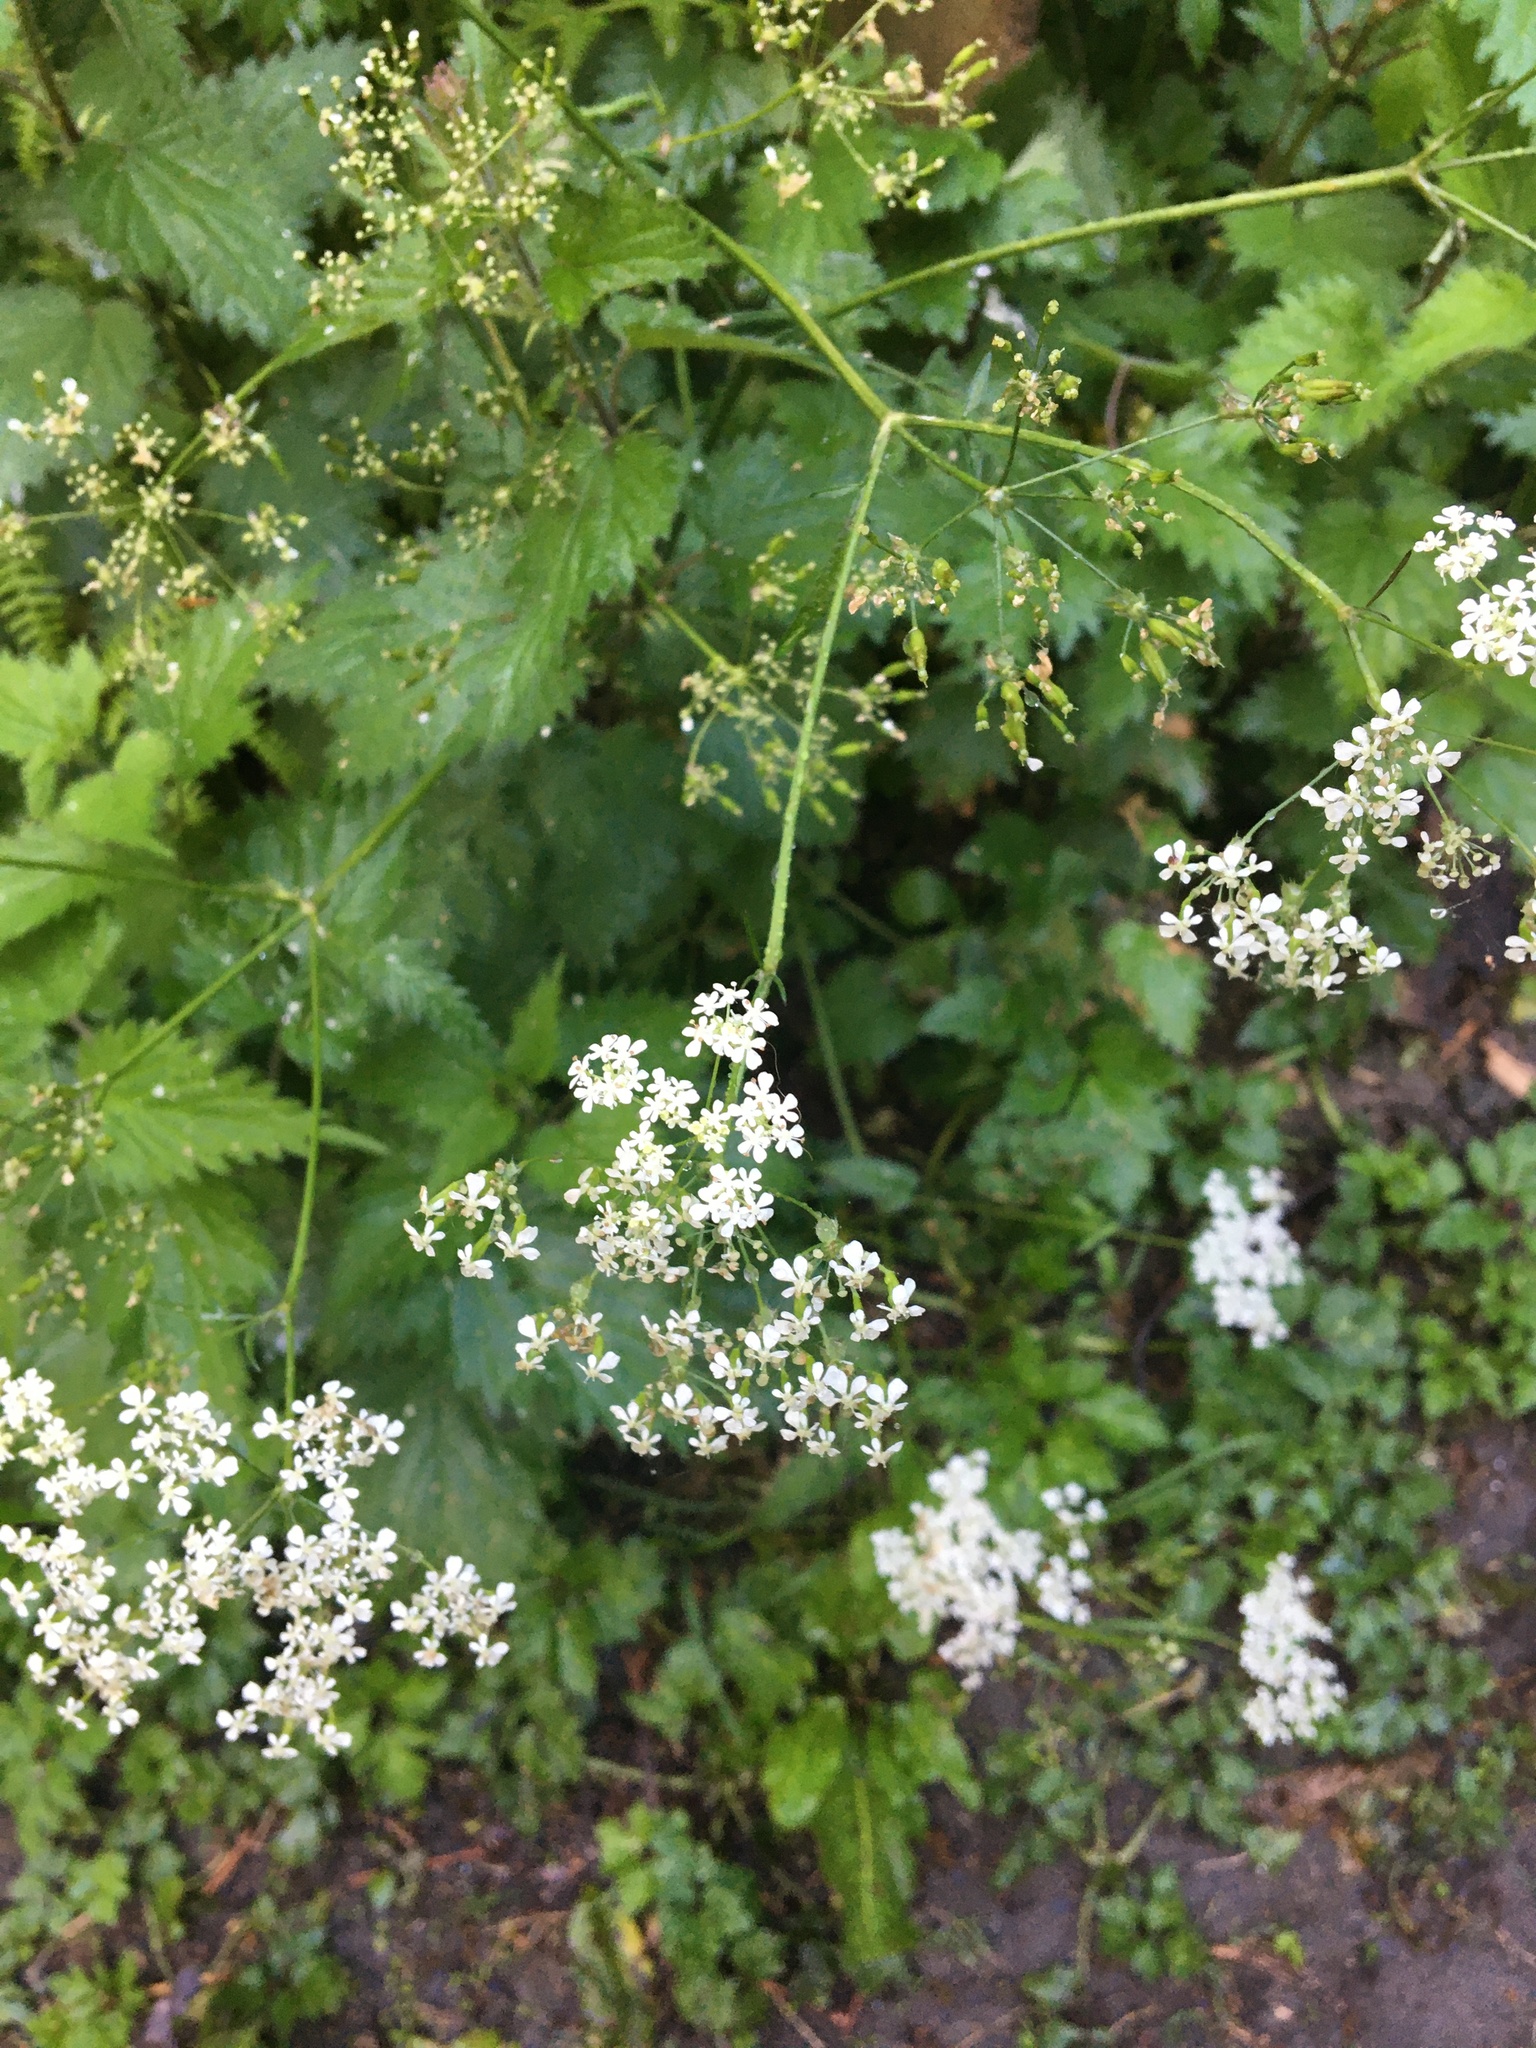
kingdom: Plantae
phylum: Tracheophyta
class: Magnoliopsida
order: Apiales
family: Apiaceae
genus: Anthriscus
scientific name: Anthriscus sylvestris
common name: Cow parsley
